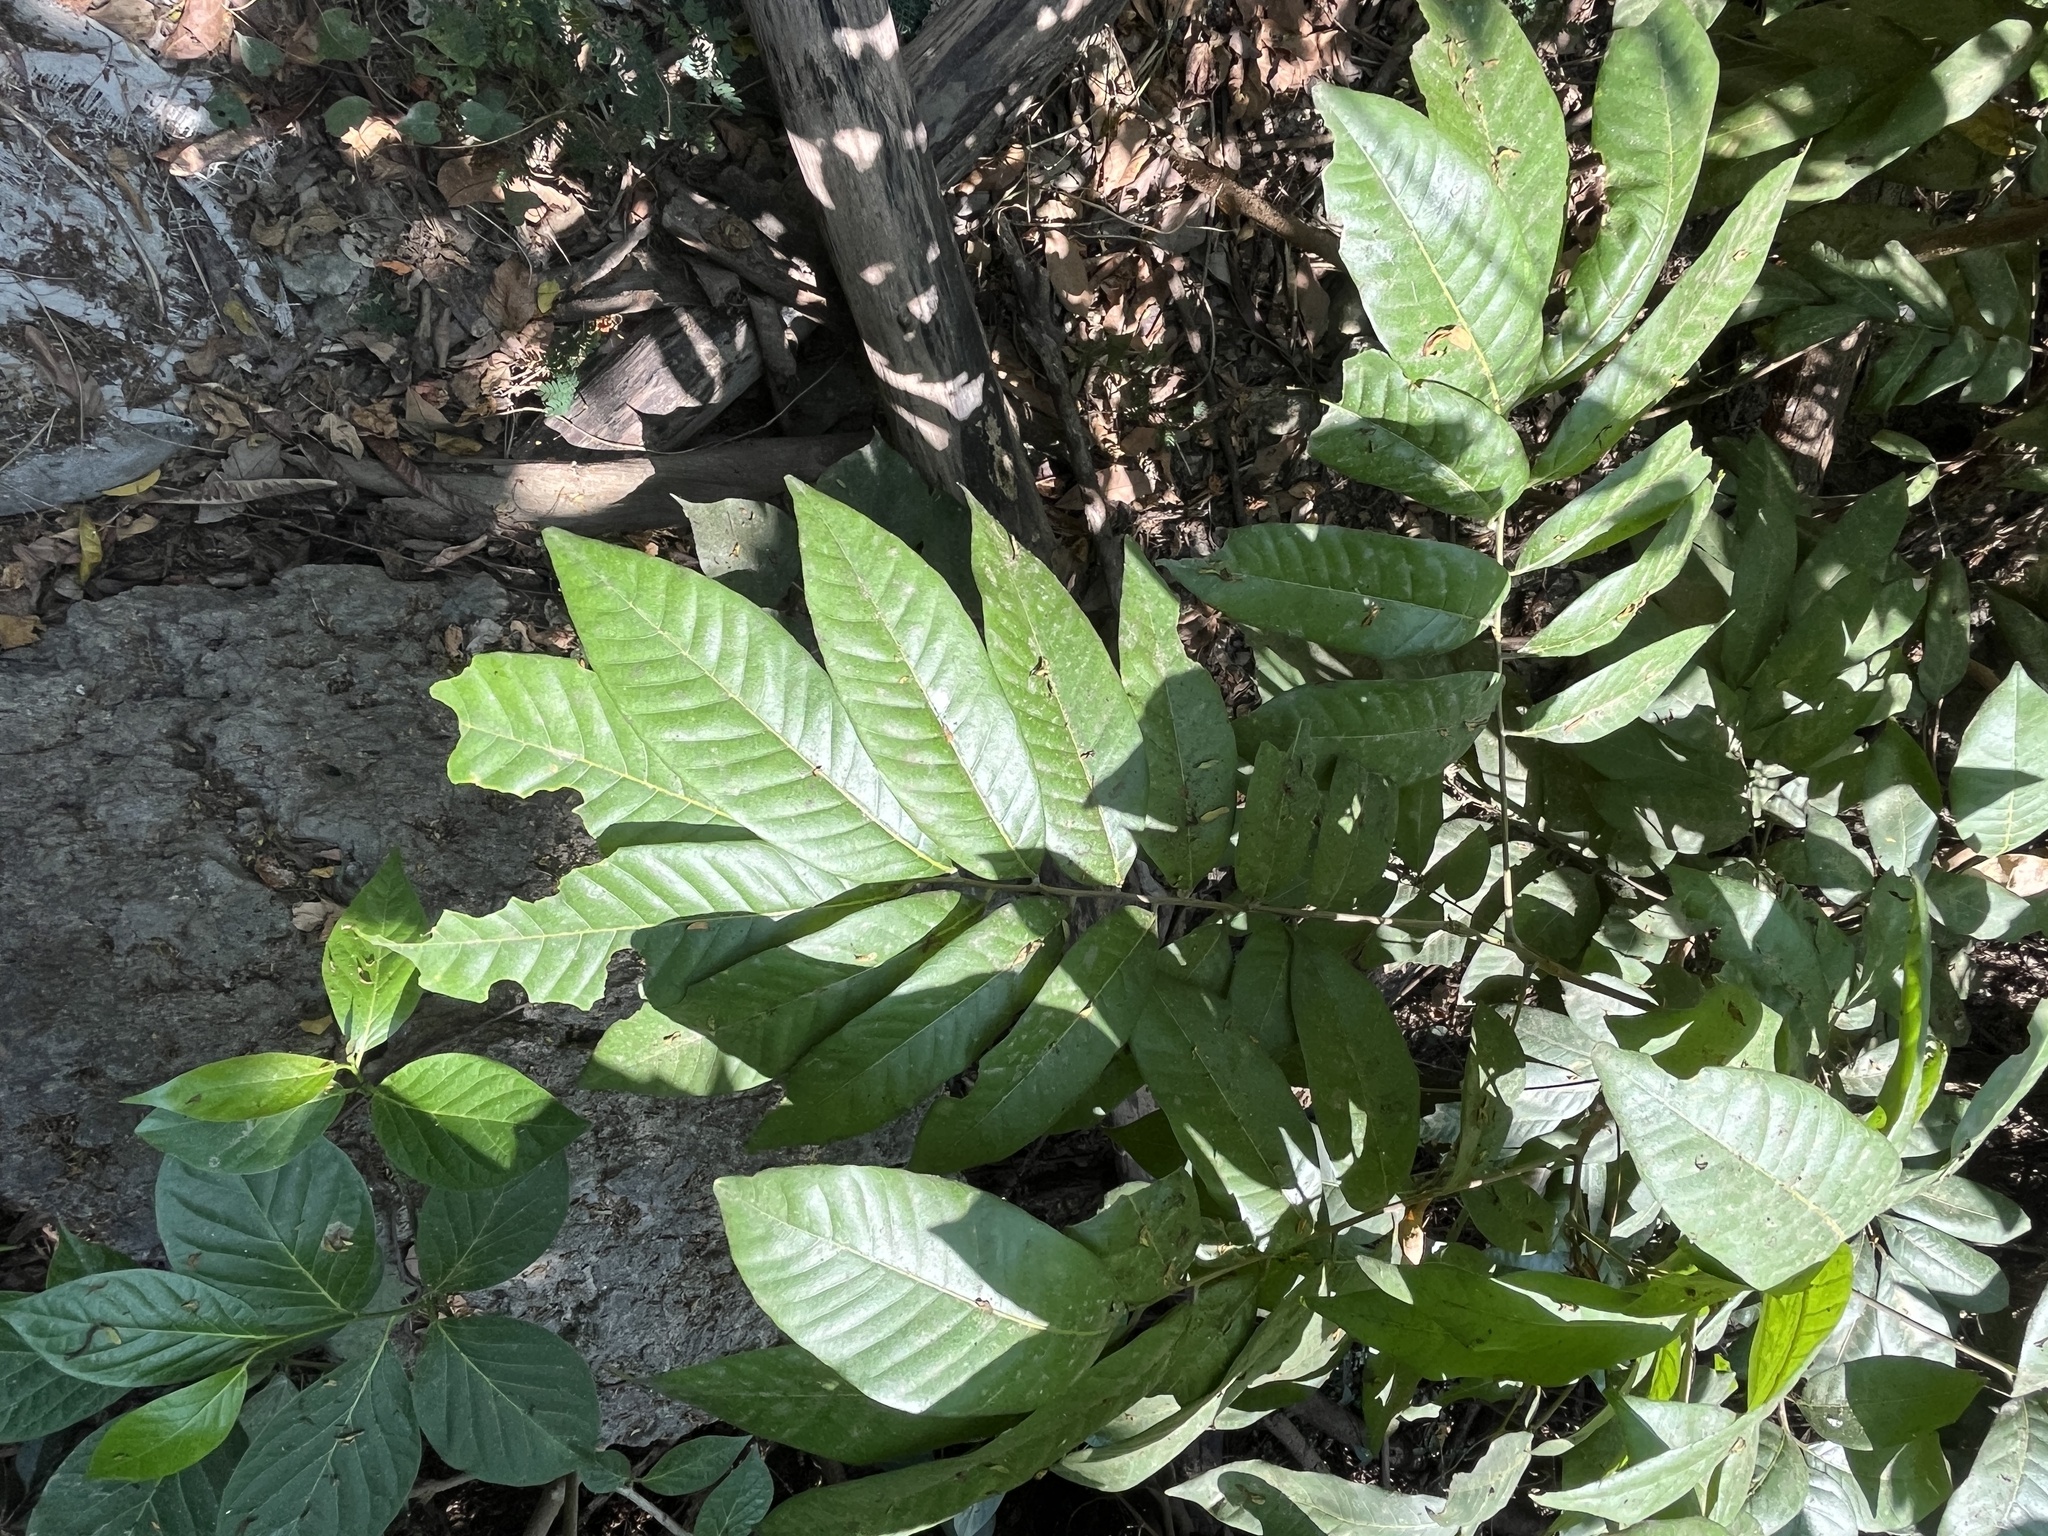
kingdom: Plantae
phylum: Tracheophyta
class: Magnoliopsida
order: Sapindales
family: Sapindaceae
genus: Dimocarpus
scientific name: Dimocarpus longan
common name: Longan
